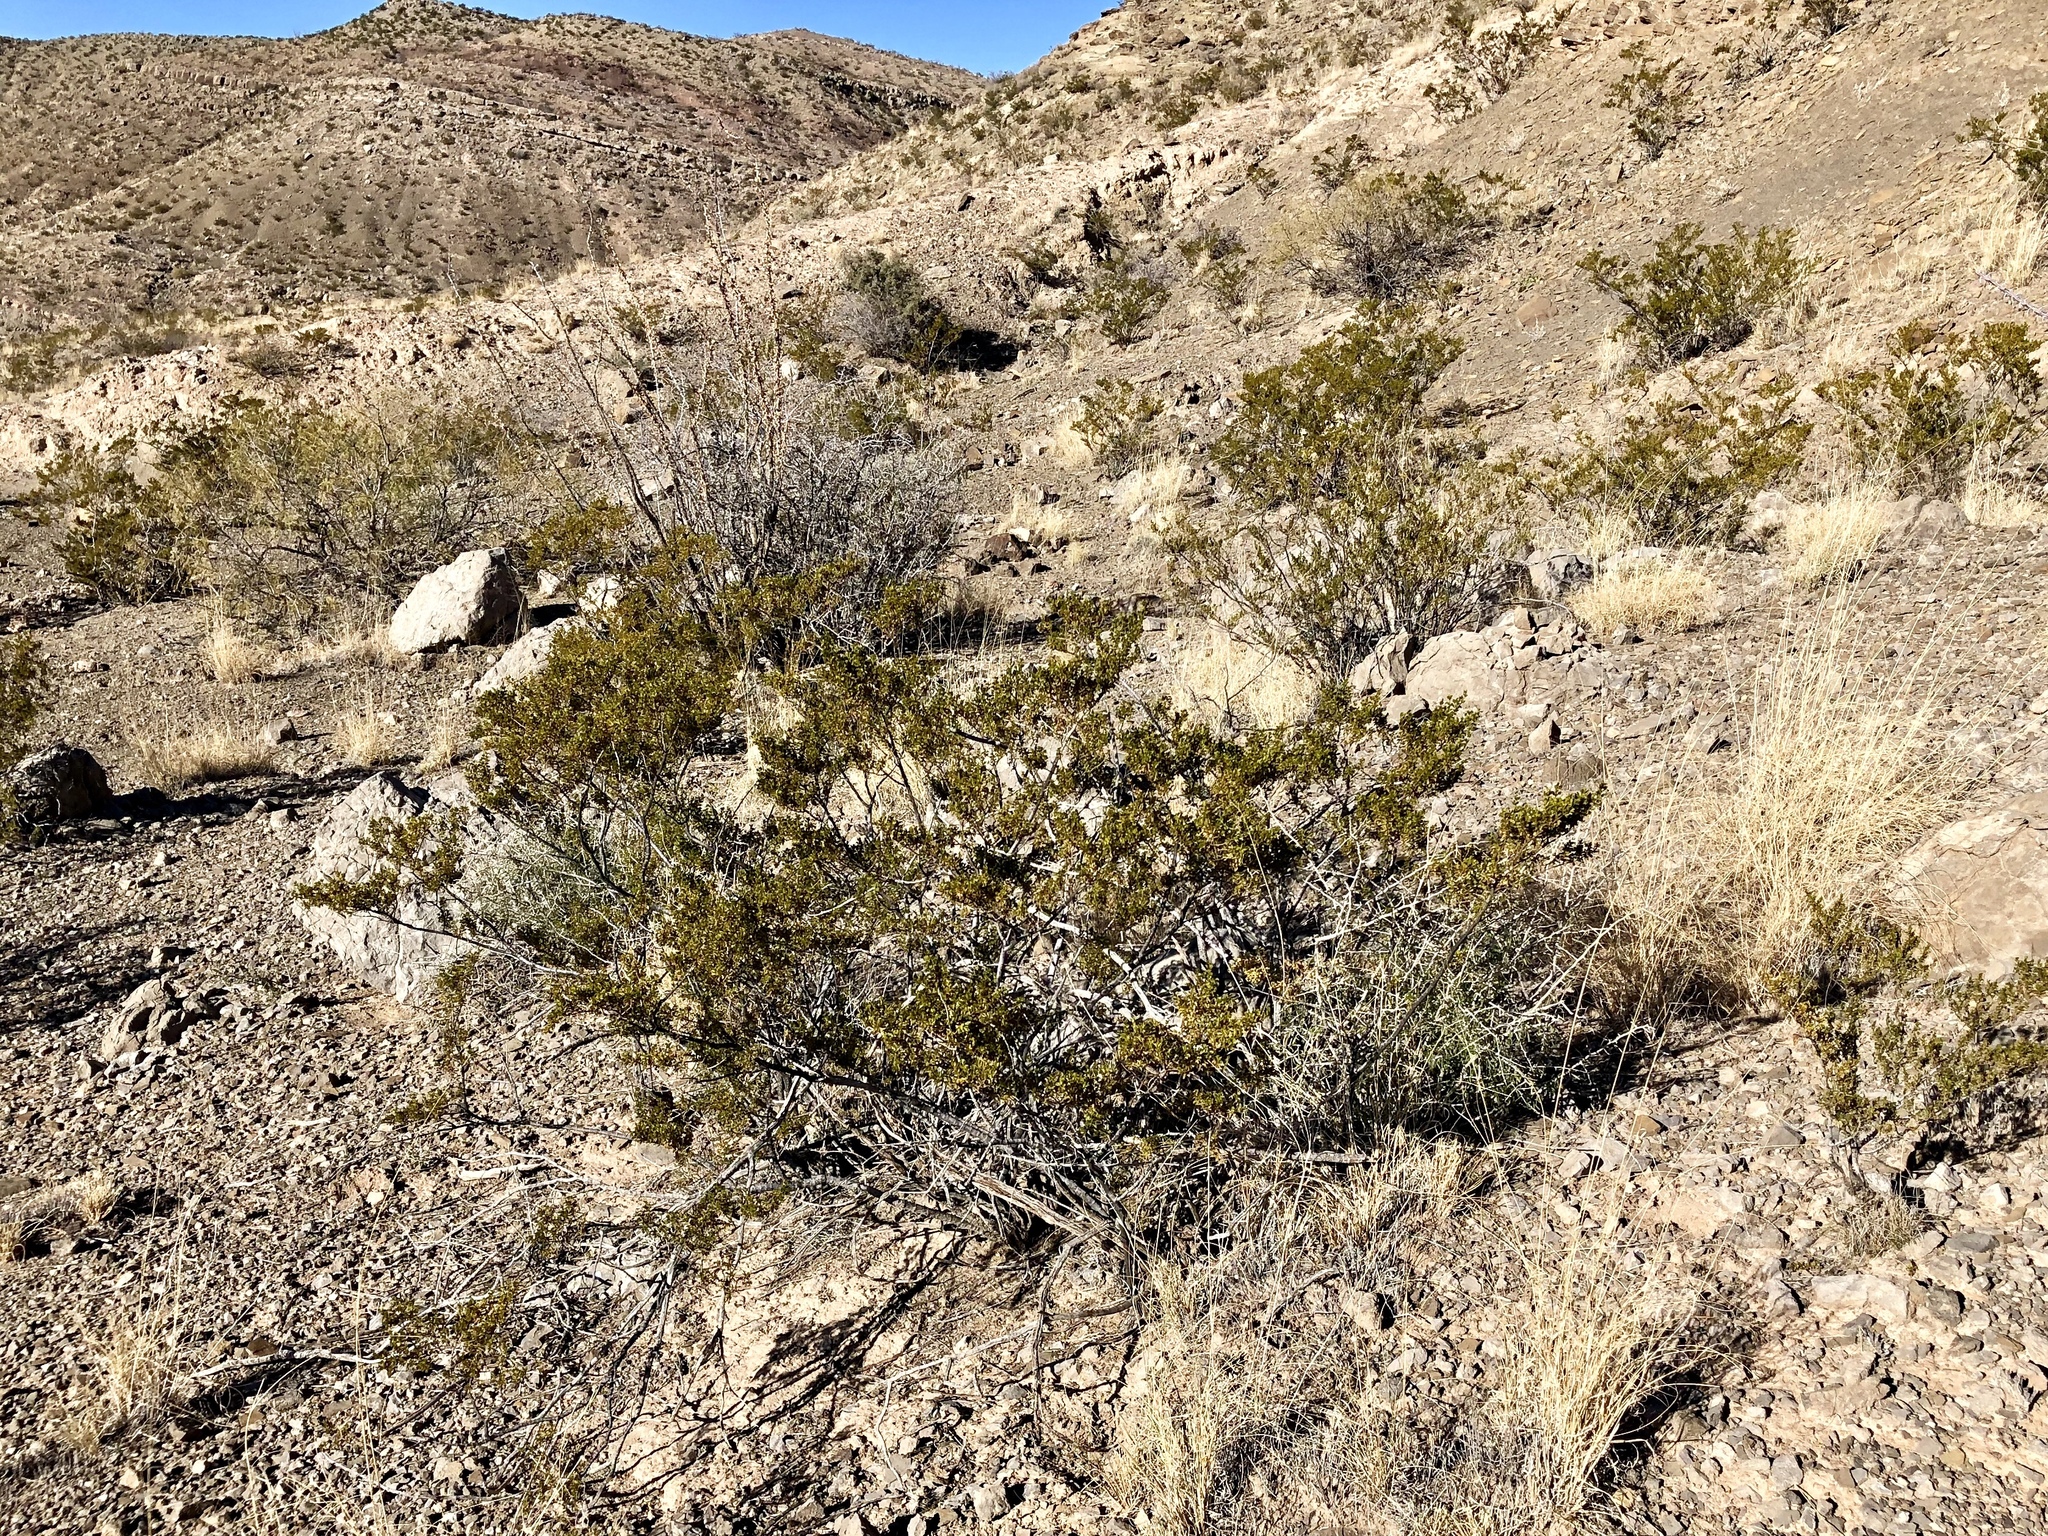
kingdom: Plantae
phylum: Tracheophyta
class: Magnoliopsida
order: Zygophyllales
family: Zygophyllaceae
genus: Larrea
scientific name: Larrea tridentata
